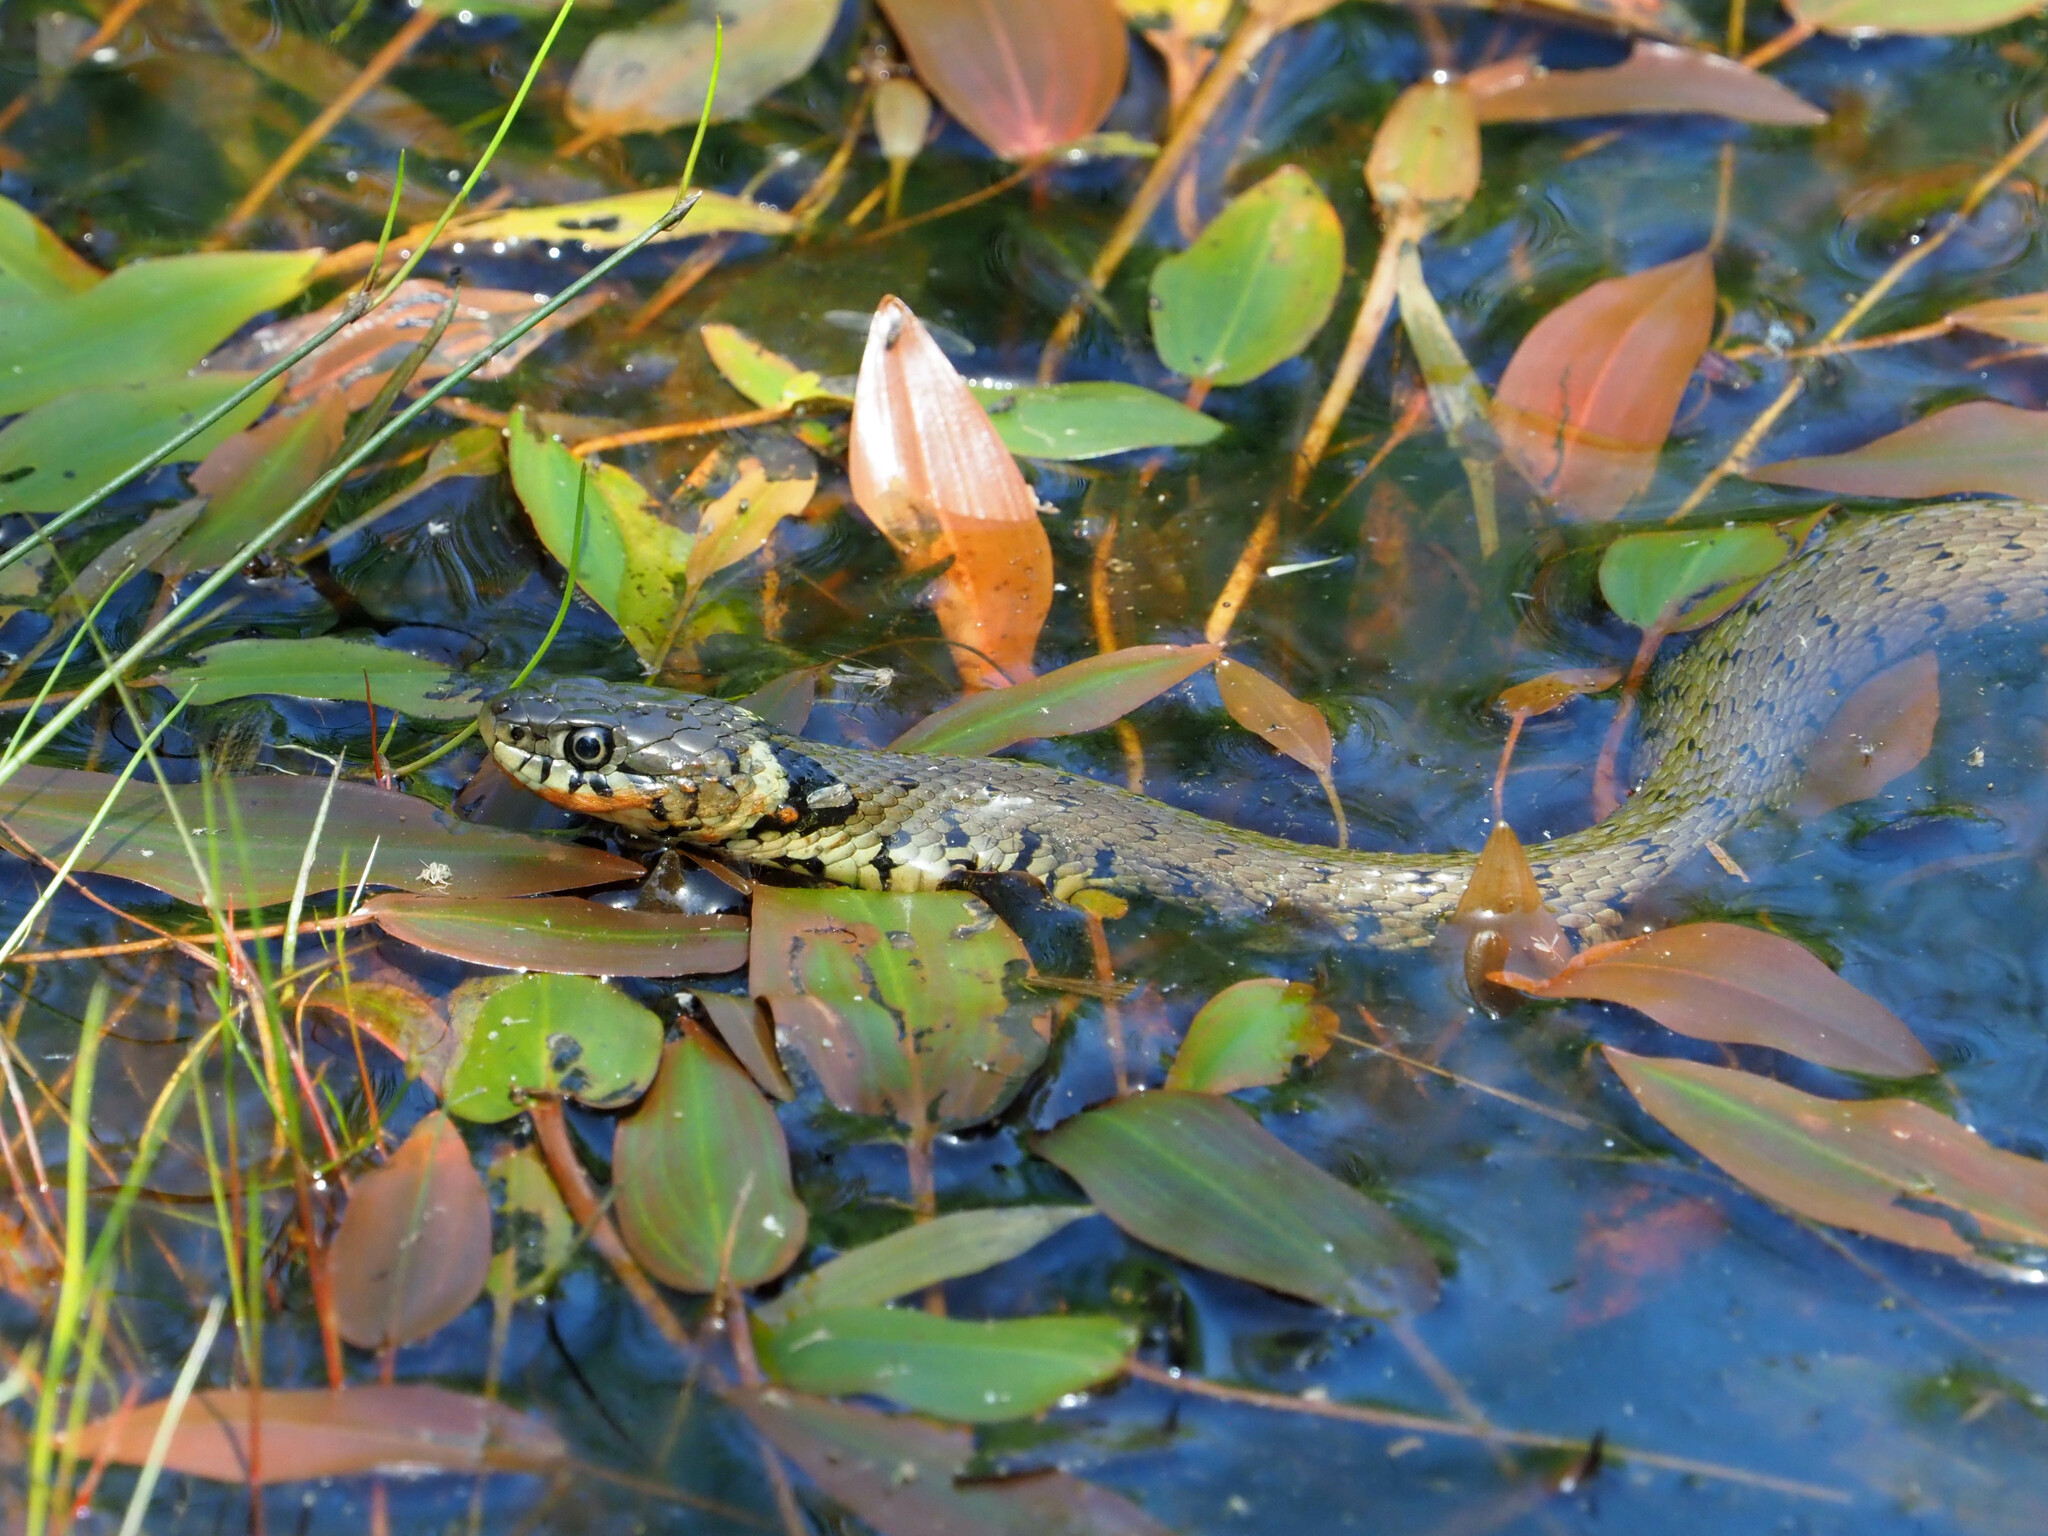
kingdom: Animalia
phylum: Chordata
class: Squamata
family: Colubridae
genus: Natrix
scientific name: Natrix helvetica
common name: Banded grass snake
